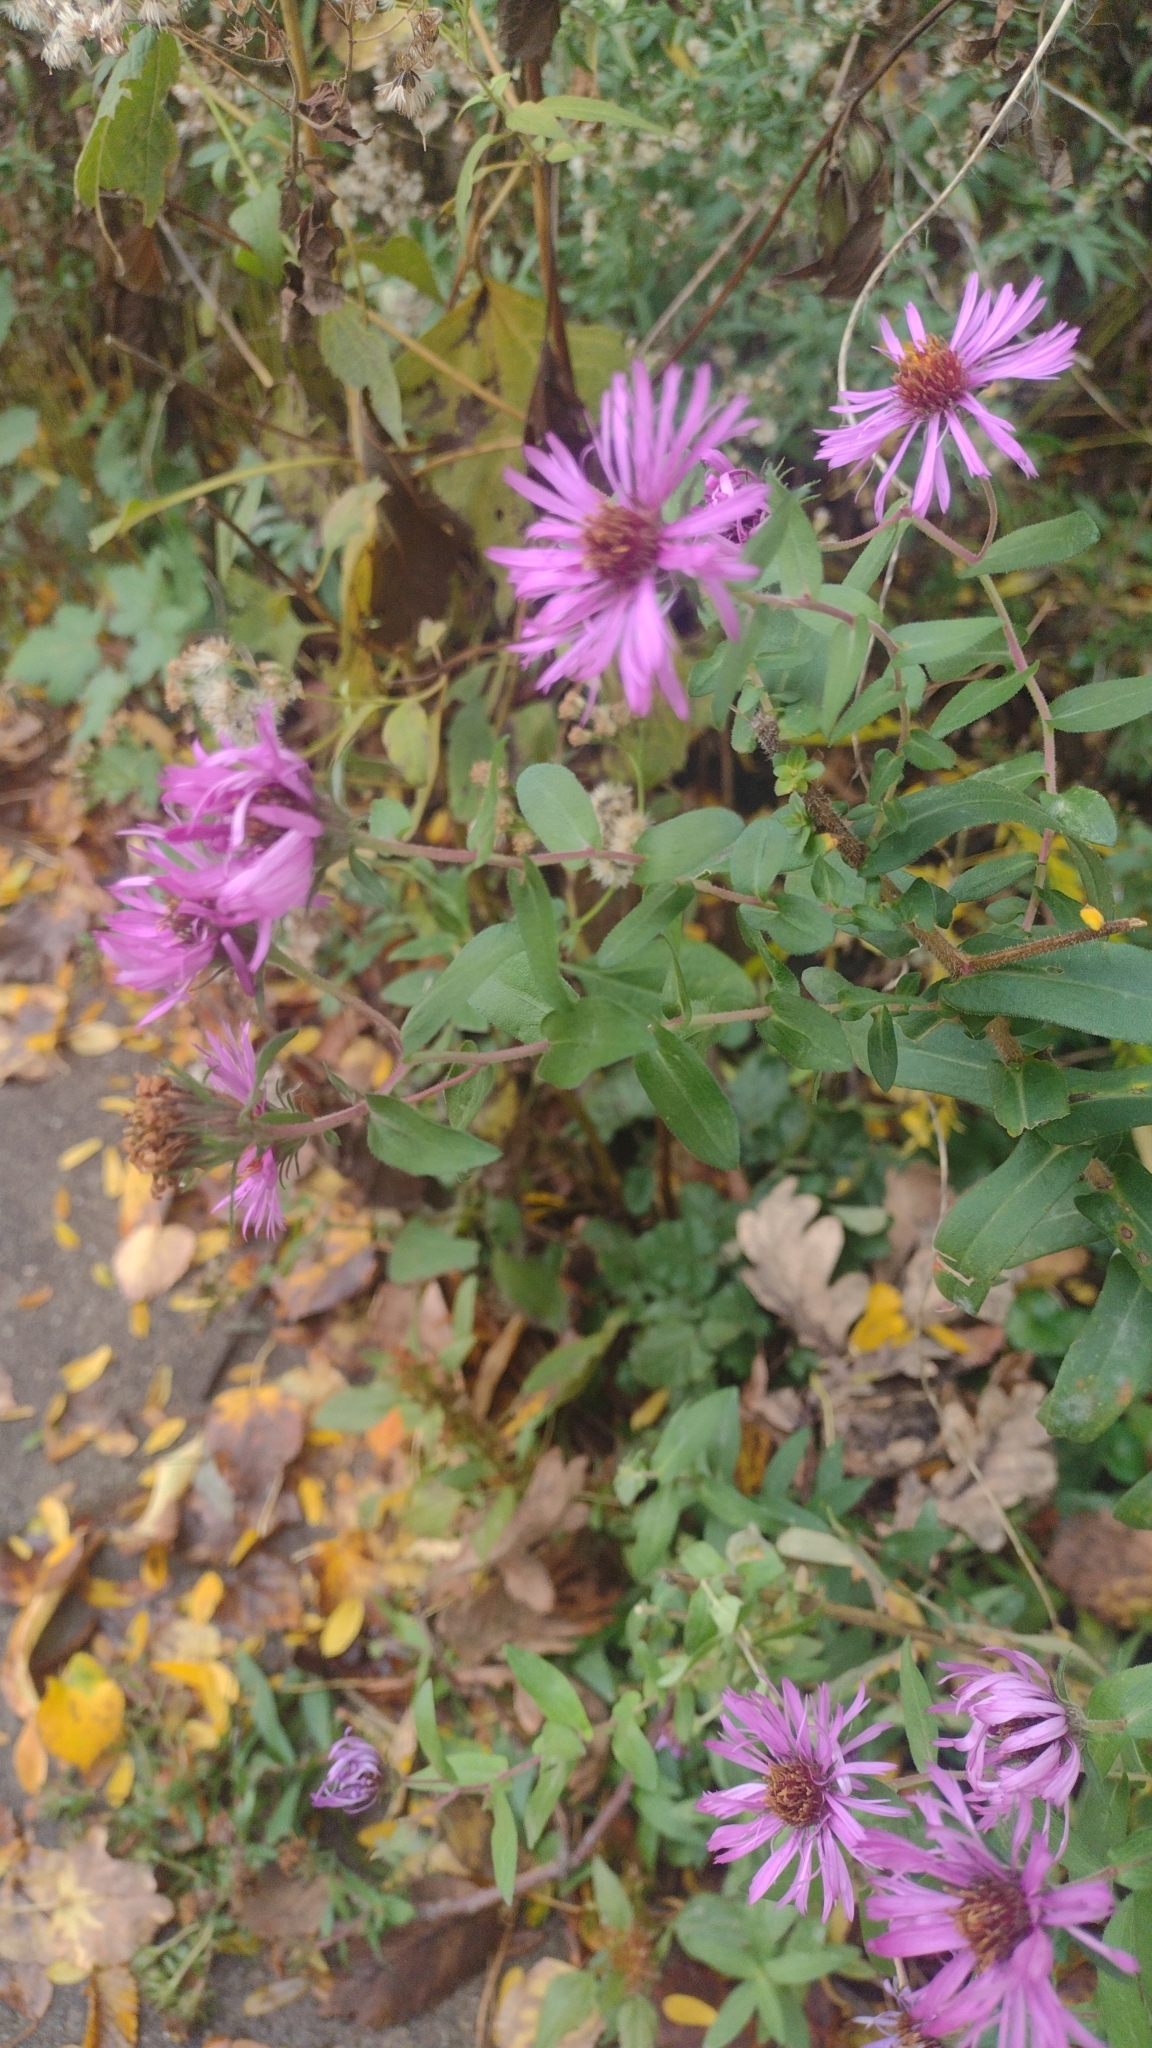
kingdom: Plantae
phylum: Tracheophyta
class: Magnoliopsida
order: Asterales
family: Asteraceae
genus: Symphyotrichum
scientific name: Symphyotrichum novae-angliae
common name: Michaelmas daisy
